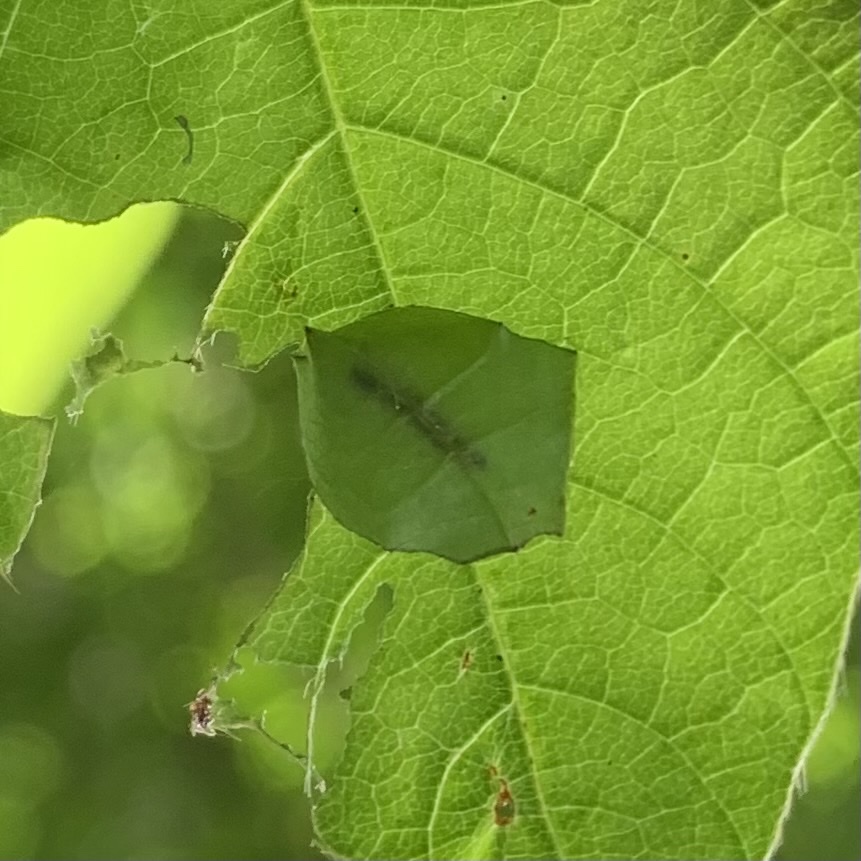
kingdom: Animalia
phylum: Arthropoda
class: Insecta
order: Lepidoptera
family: Hesperiidae
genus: Epargyreus
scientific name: Epargyreus clarus
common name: Silver-spotted skipper
